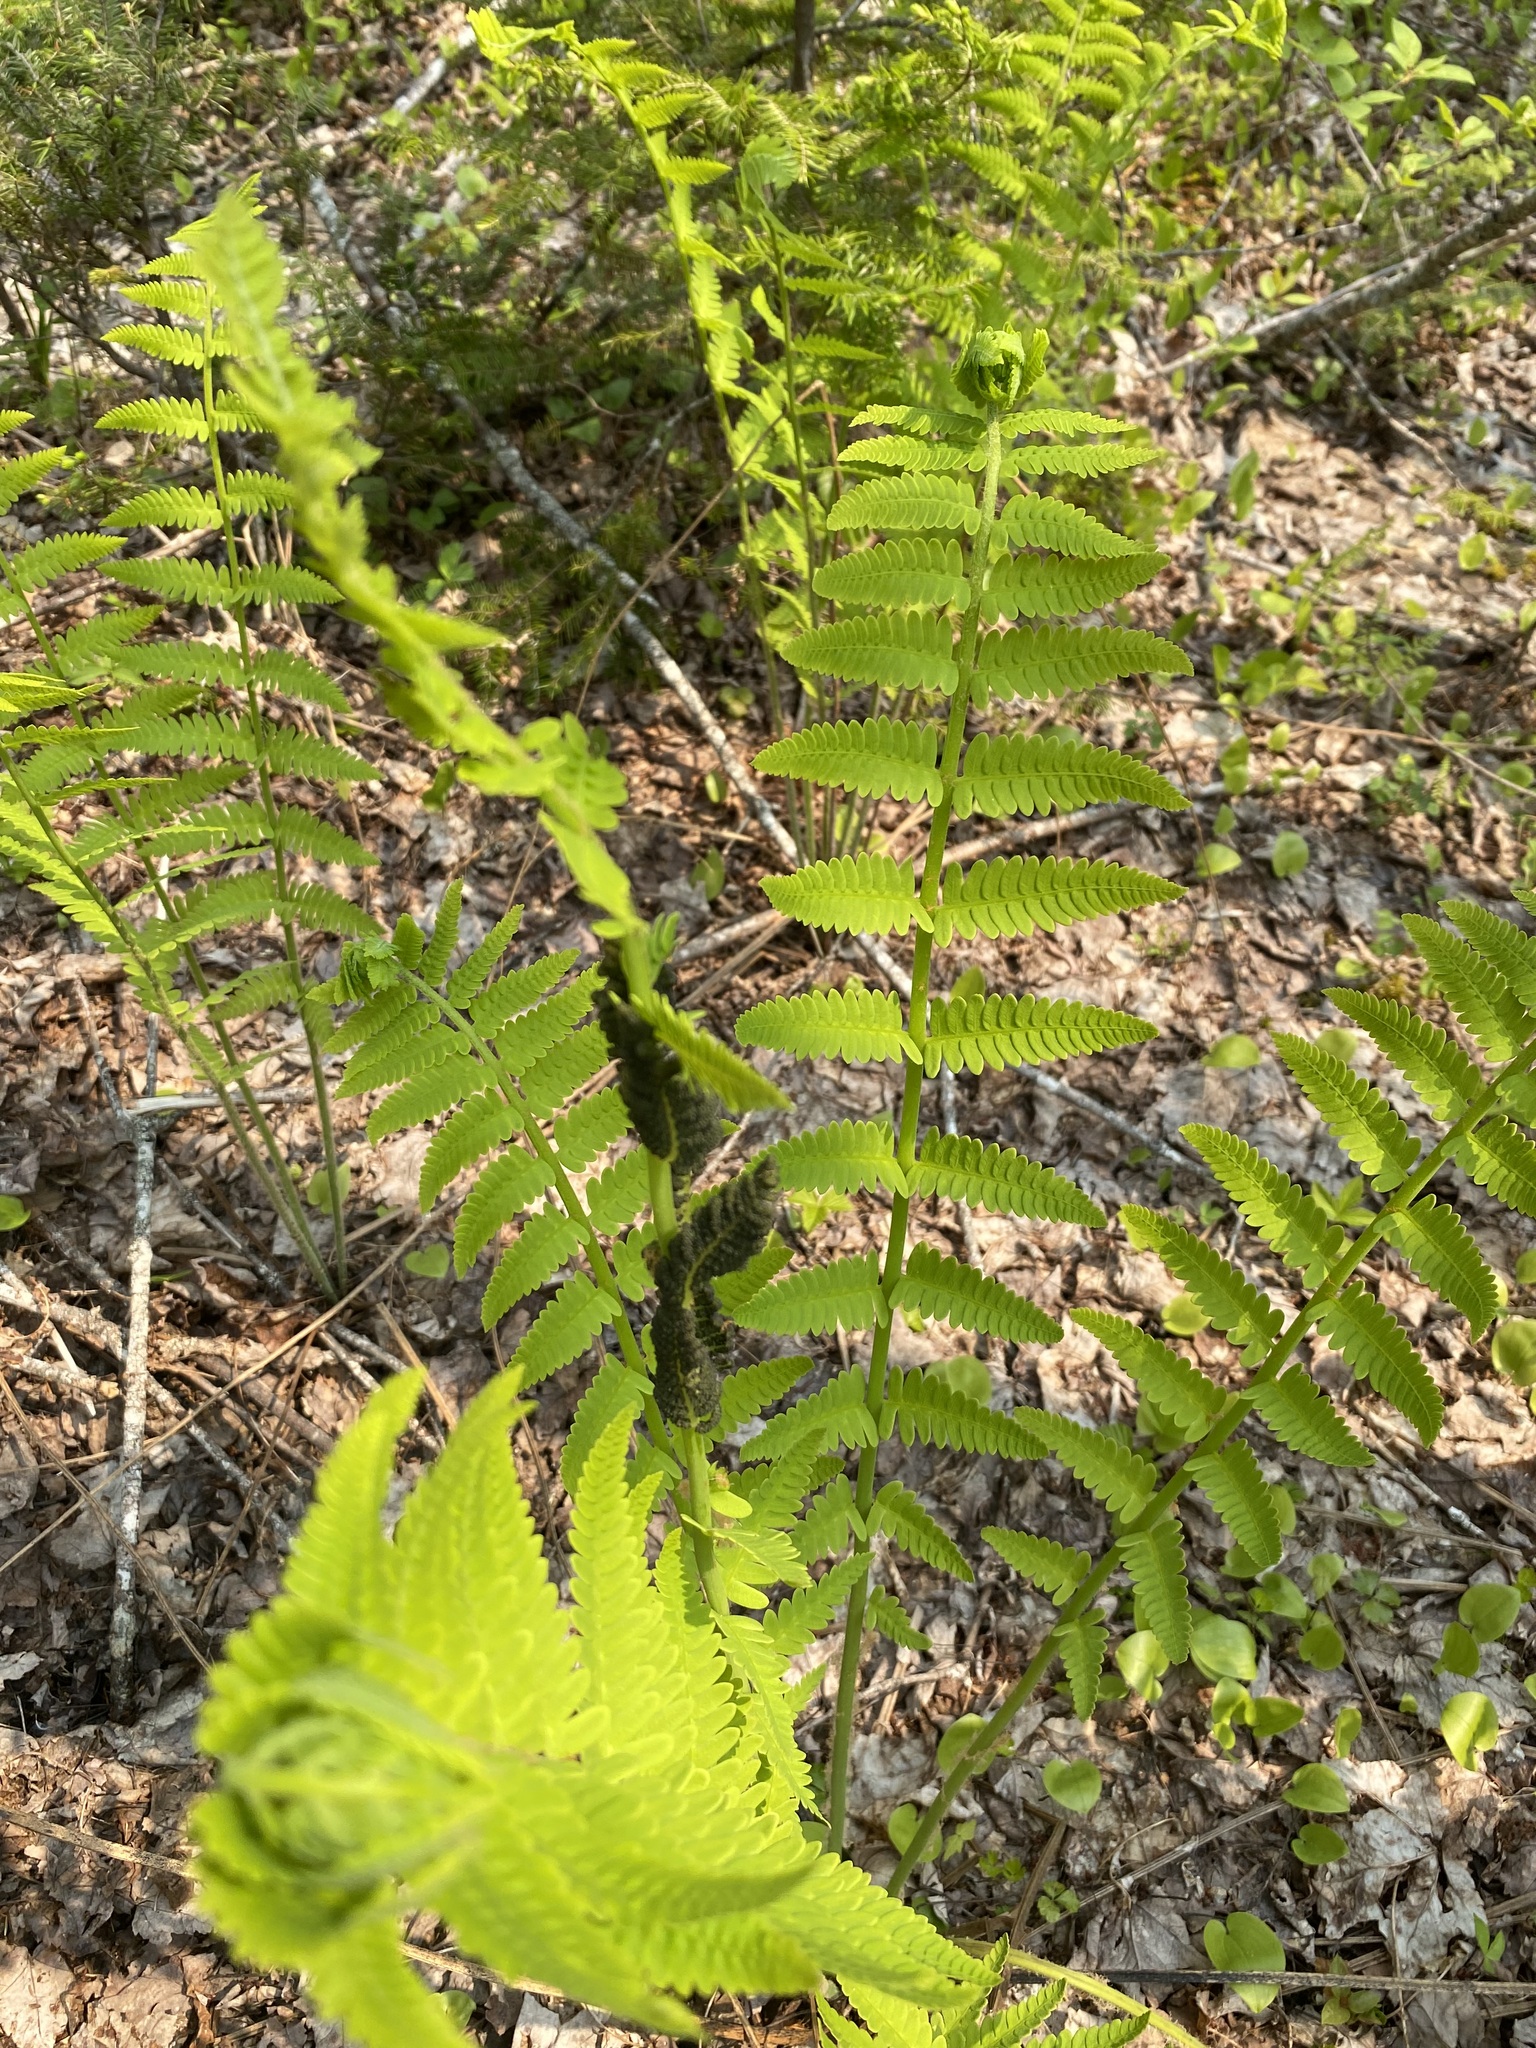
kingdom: Plantae
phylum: Tracheophyta
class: Polypodiopsida
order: Osmundales
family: Osmundaceae
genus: Claytosmunda
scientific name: Claytosmunda claytoniana
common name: Clayton's fern
